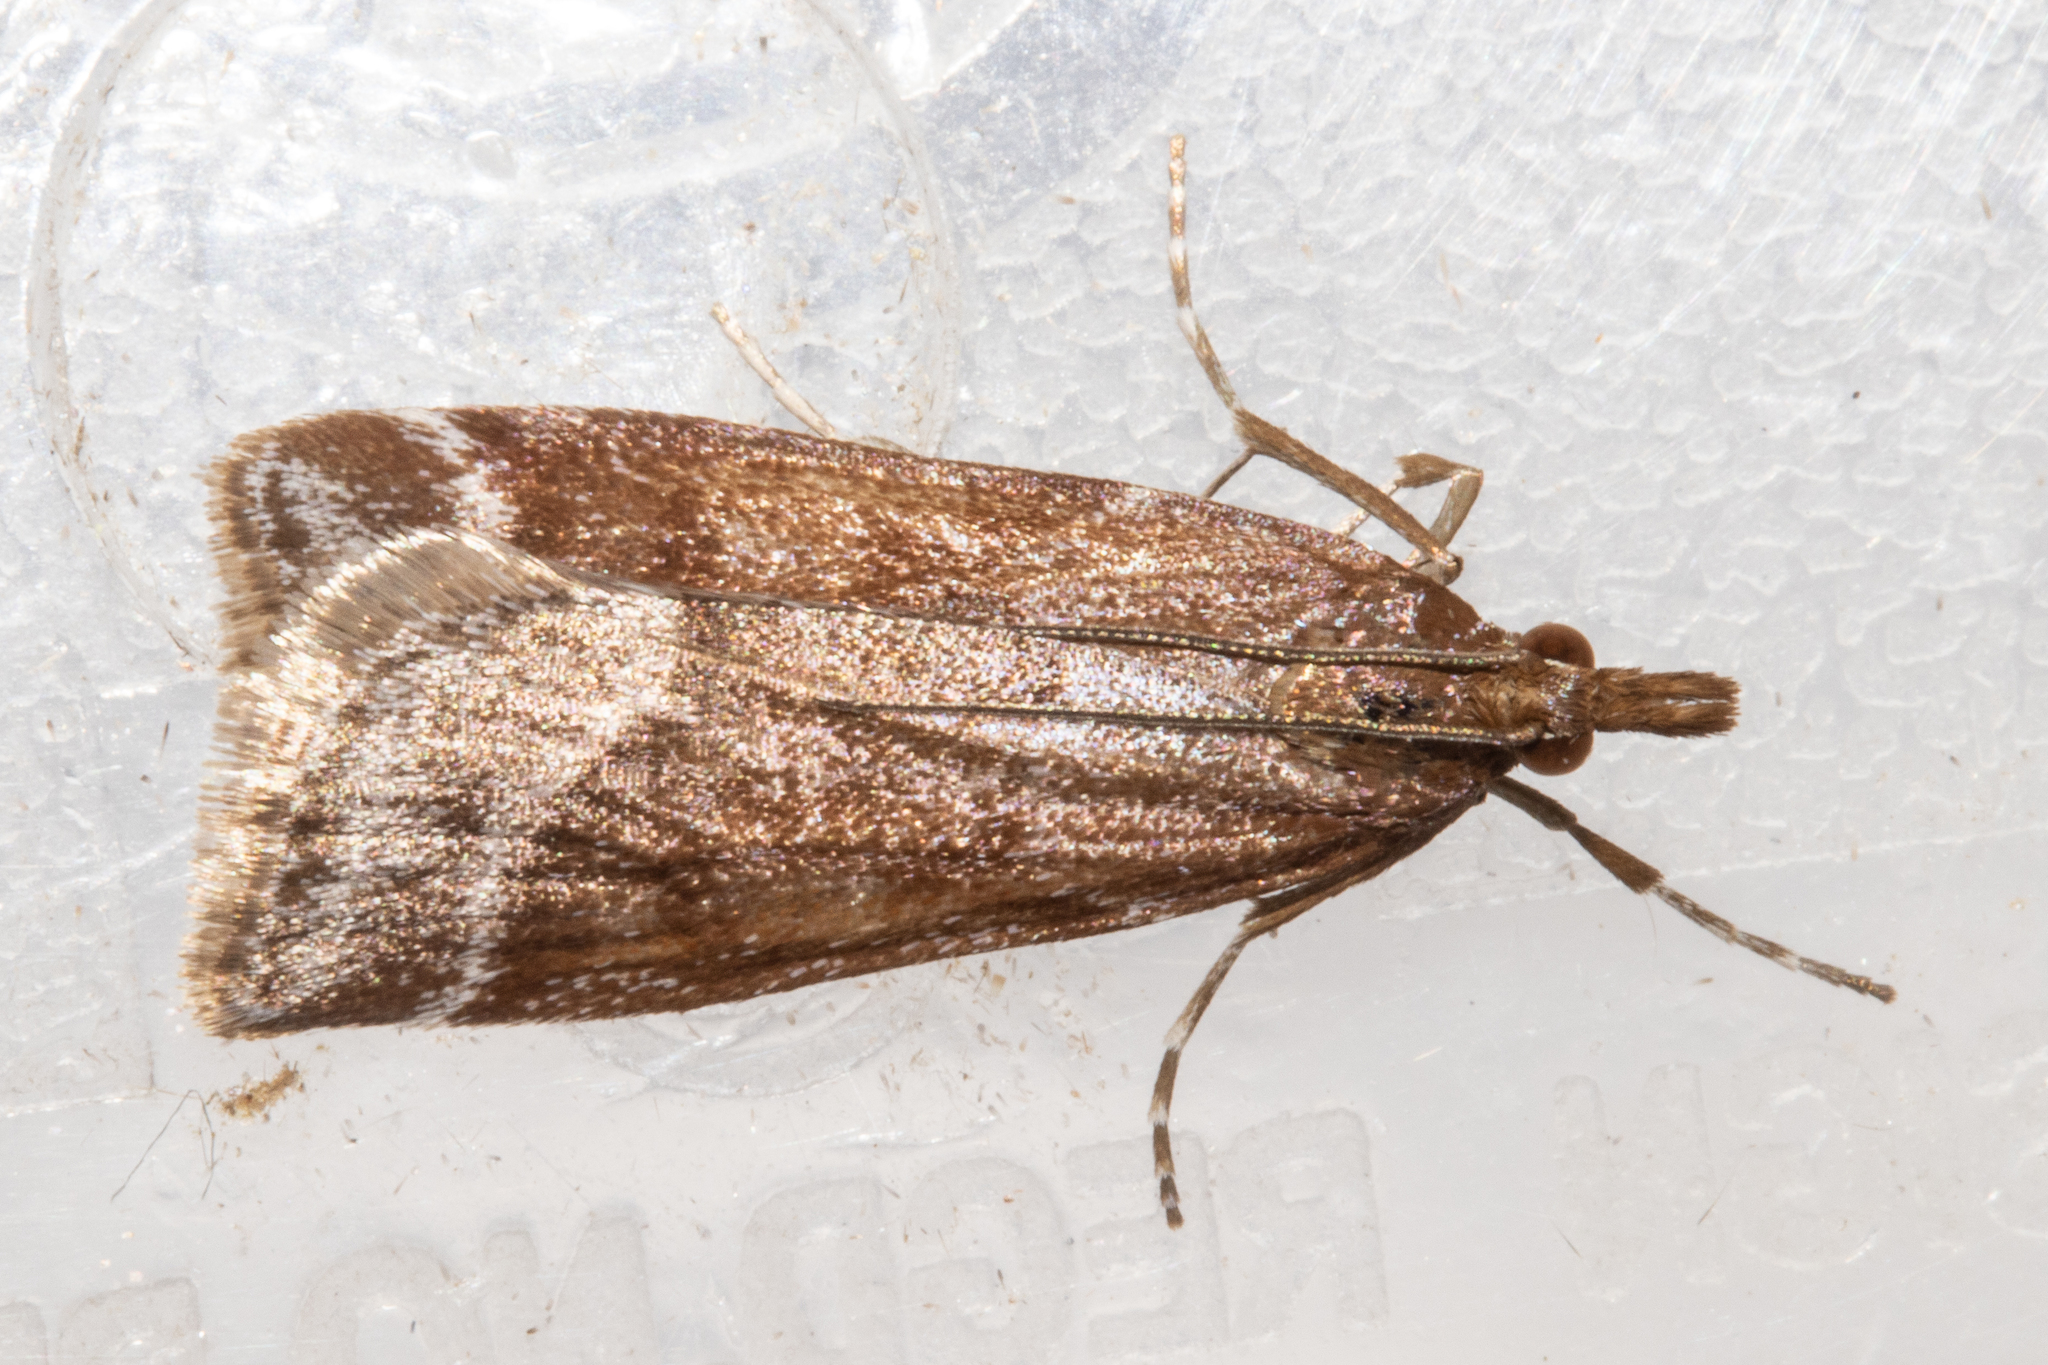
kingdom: Animalia
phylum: Arthropoda
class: Insecta
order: Lepidoptera
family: Crambidae
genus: Eudonia
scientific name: Eudonia feredayi
